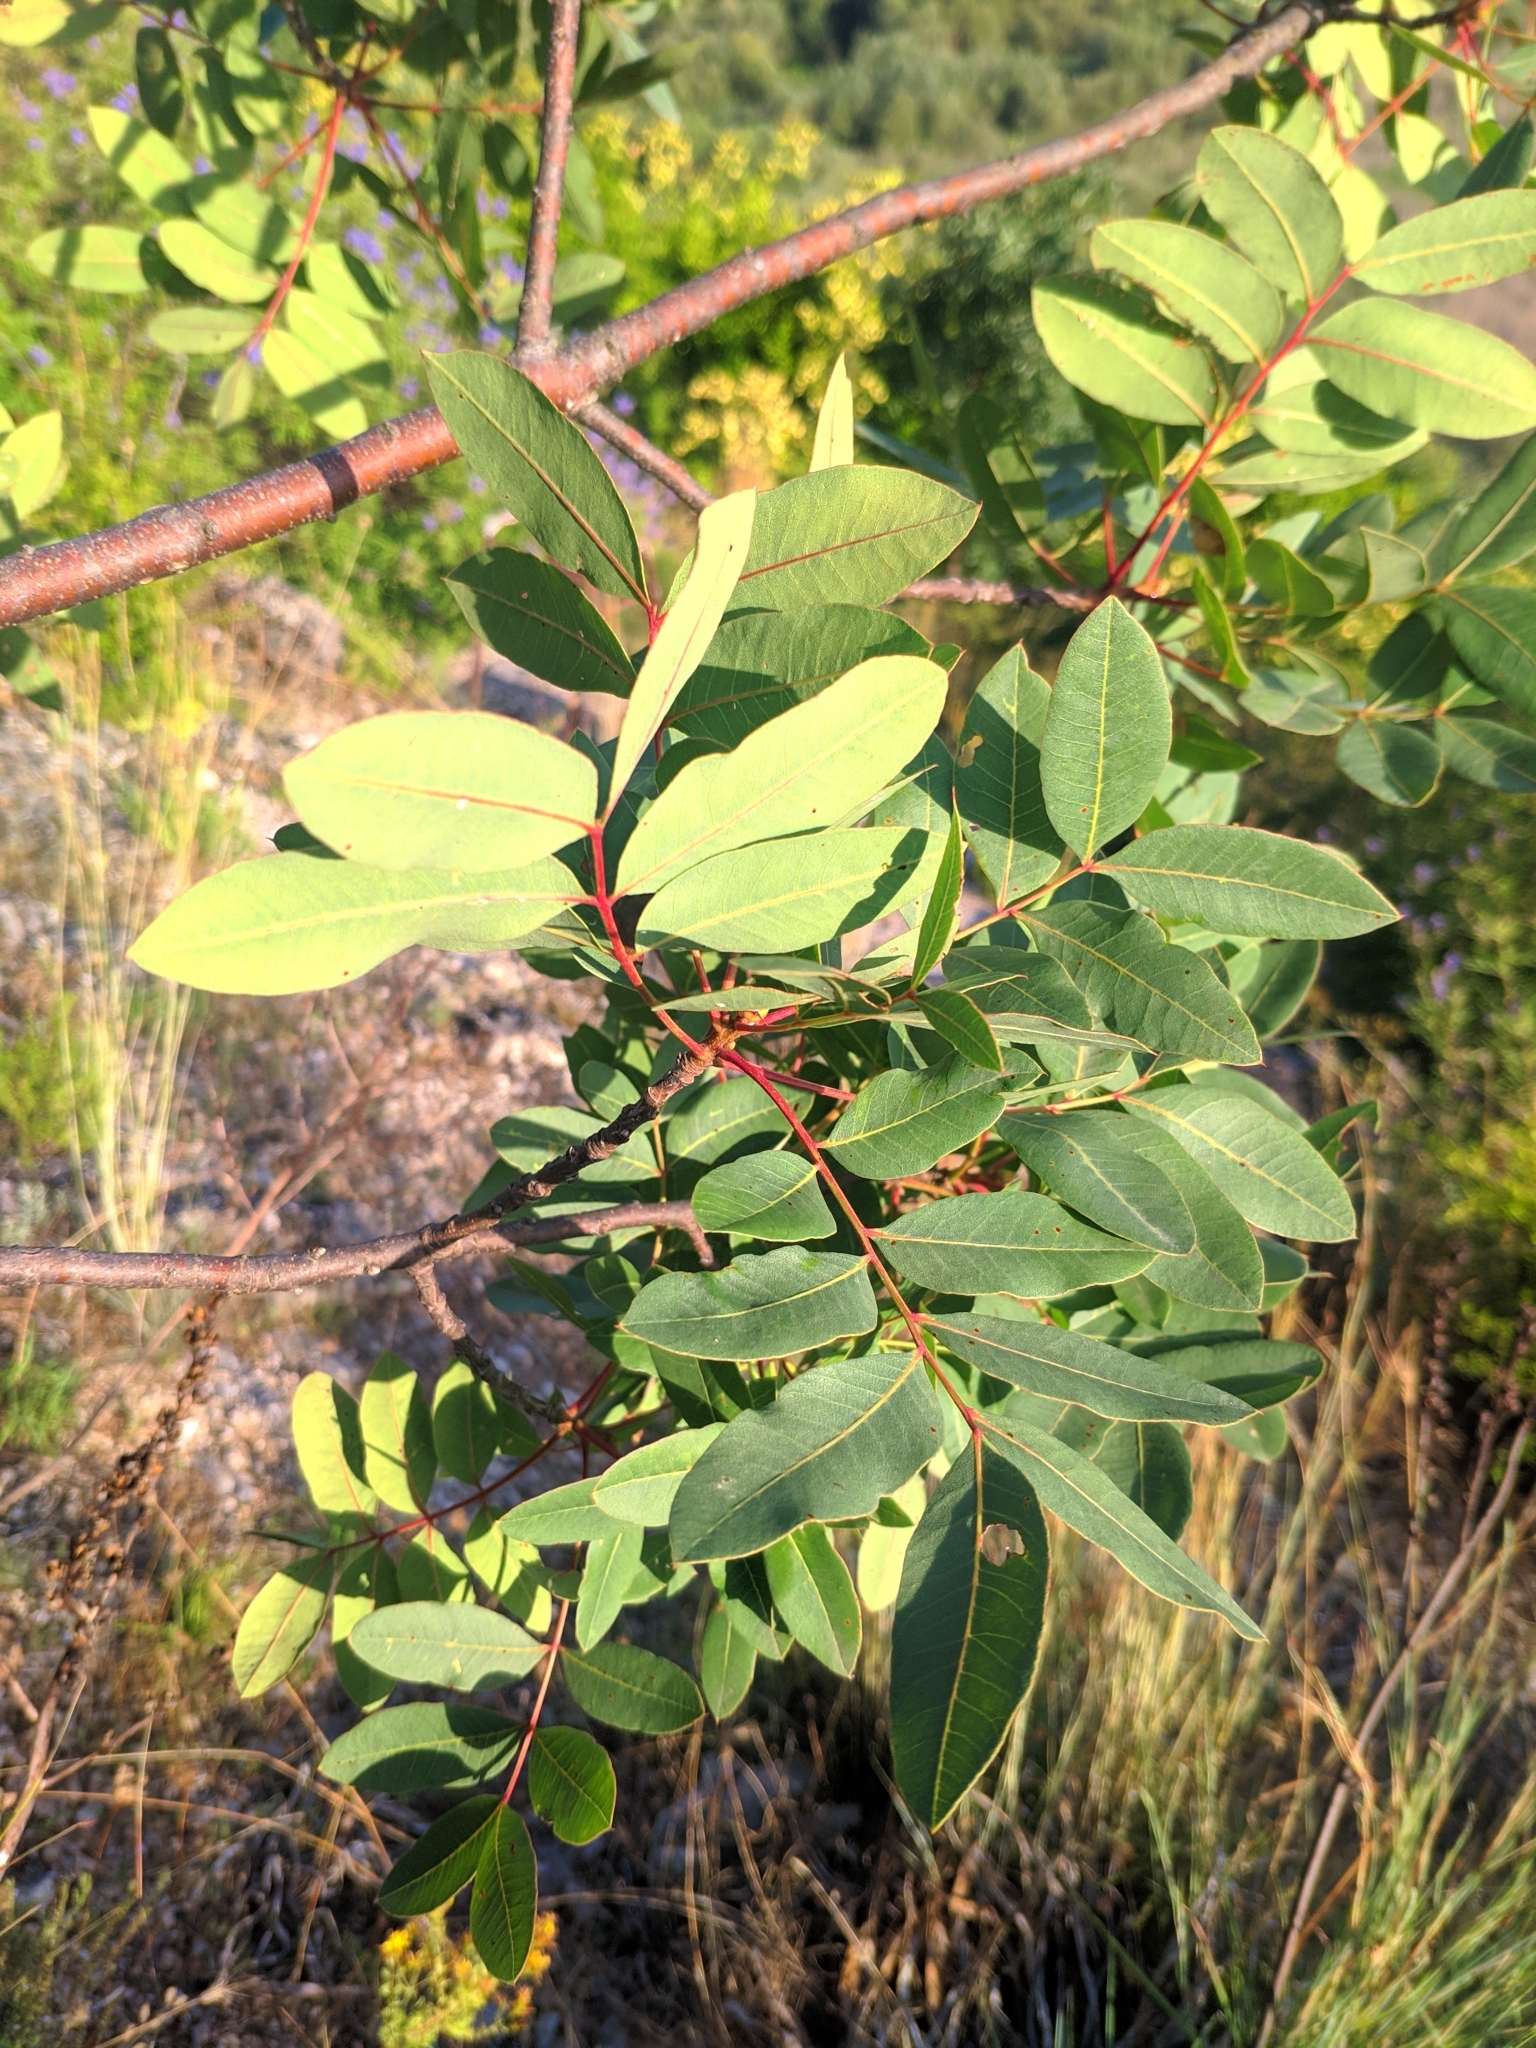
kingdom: Plantae
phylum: Tracheophyta
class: Magnoliopsida
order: Sapindales
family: Anacardiaceae
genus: Pistacia
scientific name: Pistacia terebinthus
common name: Terebinth
